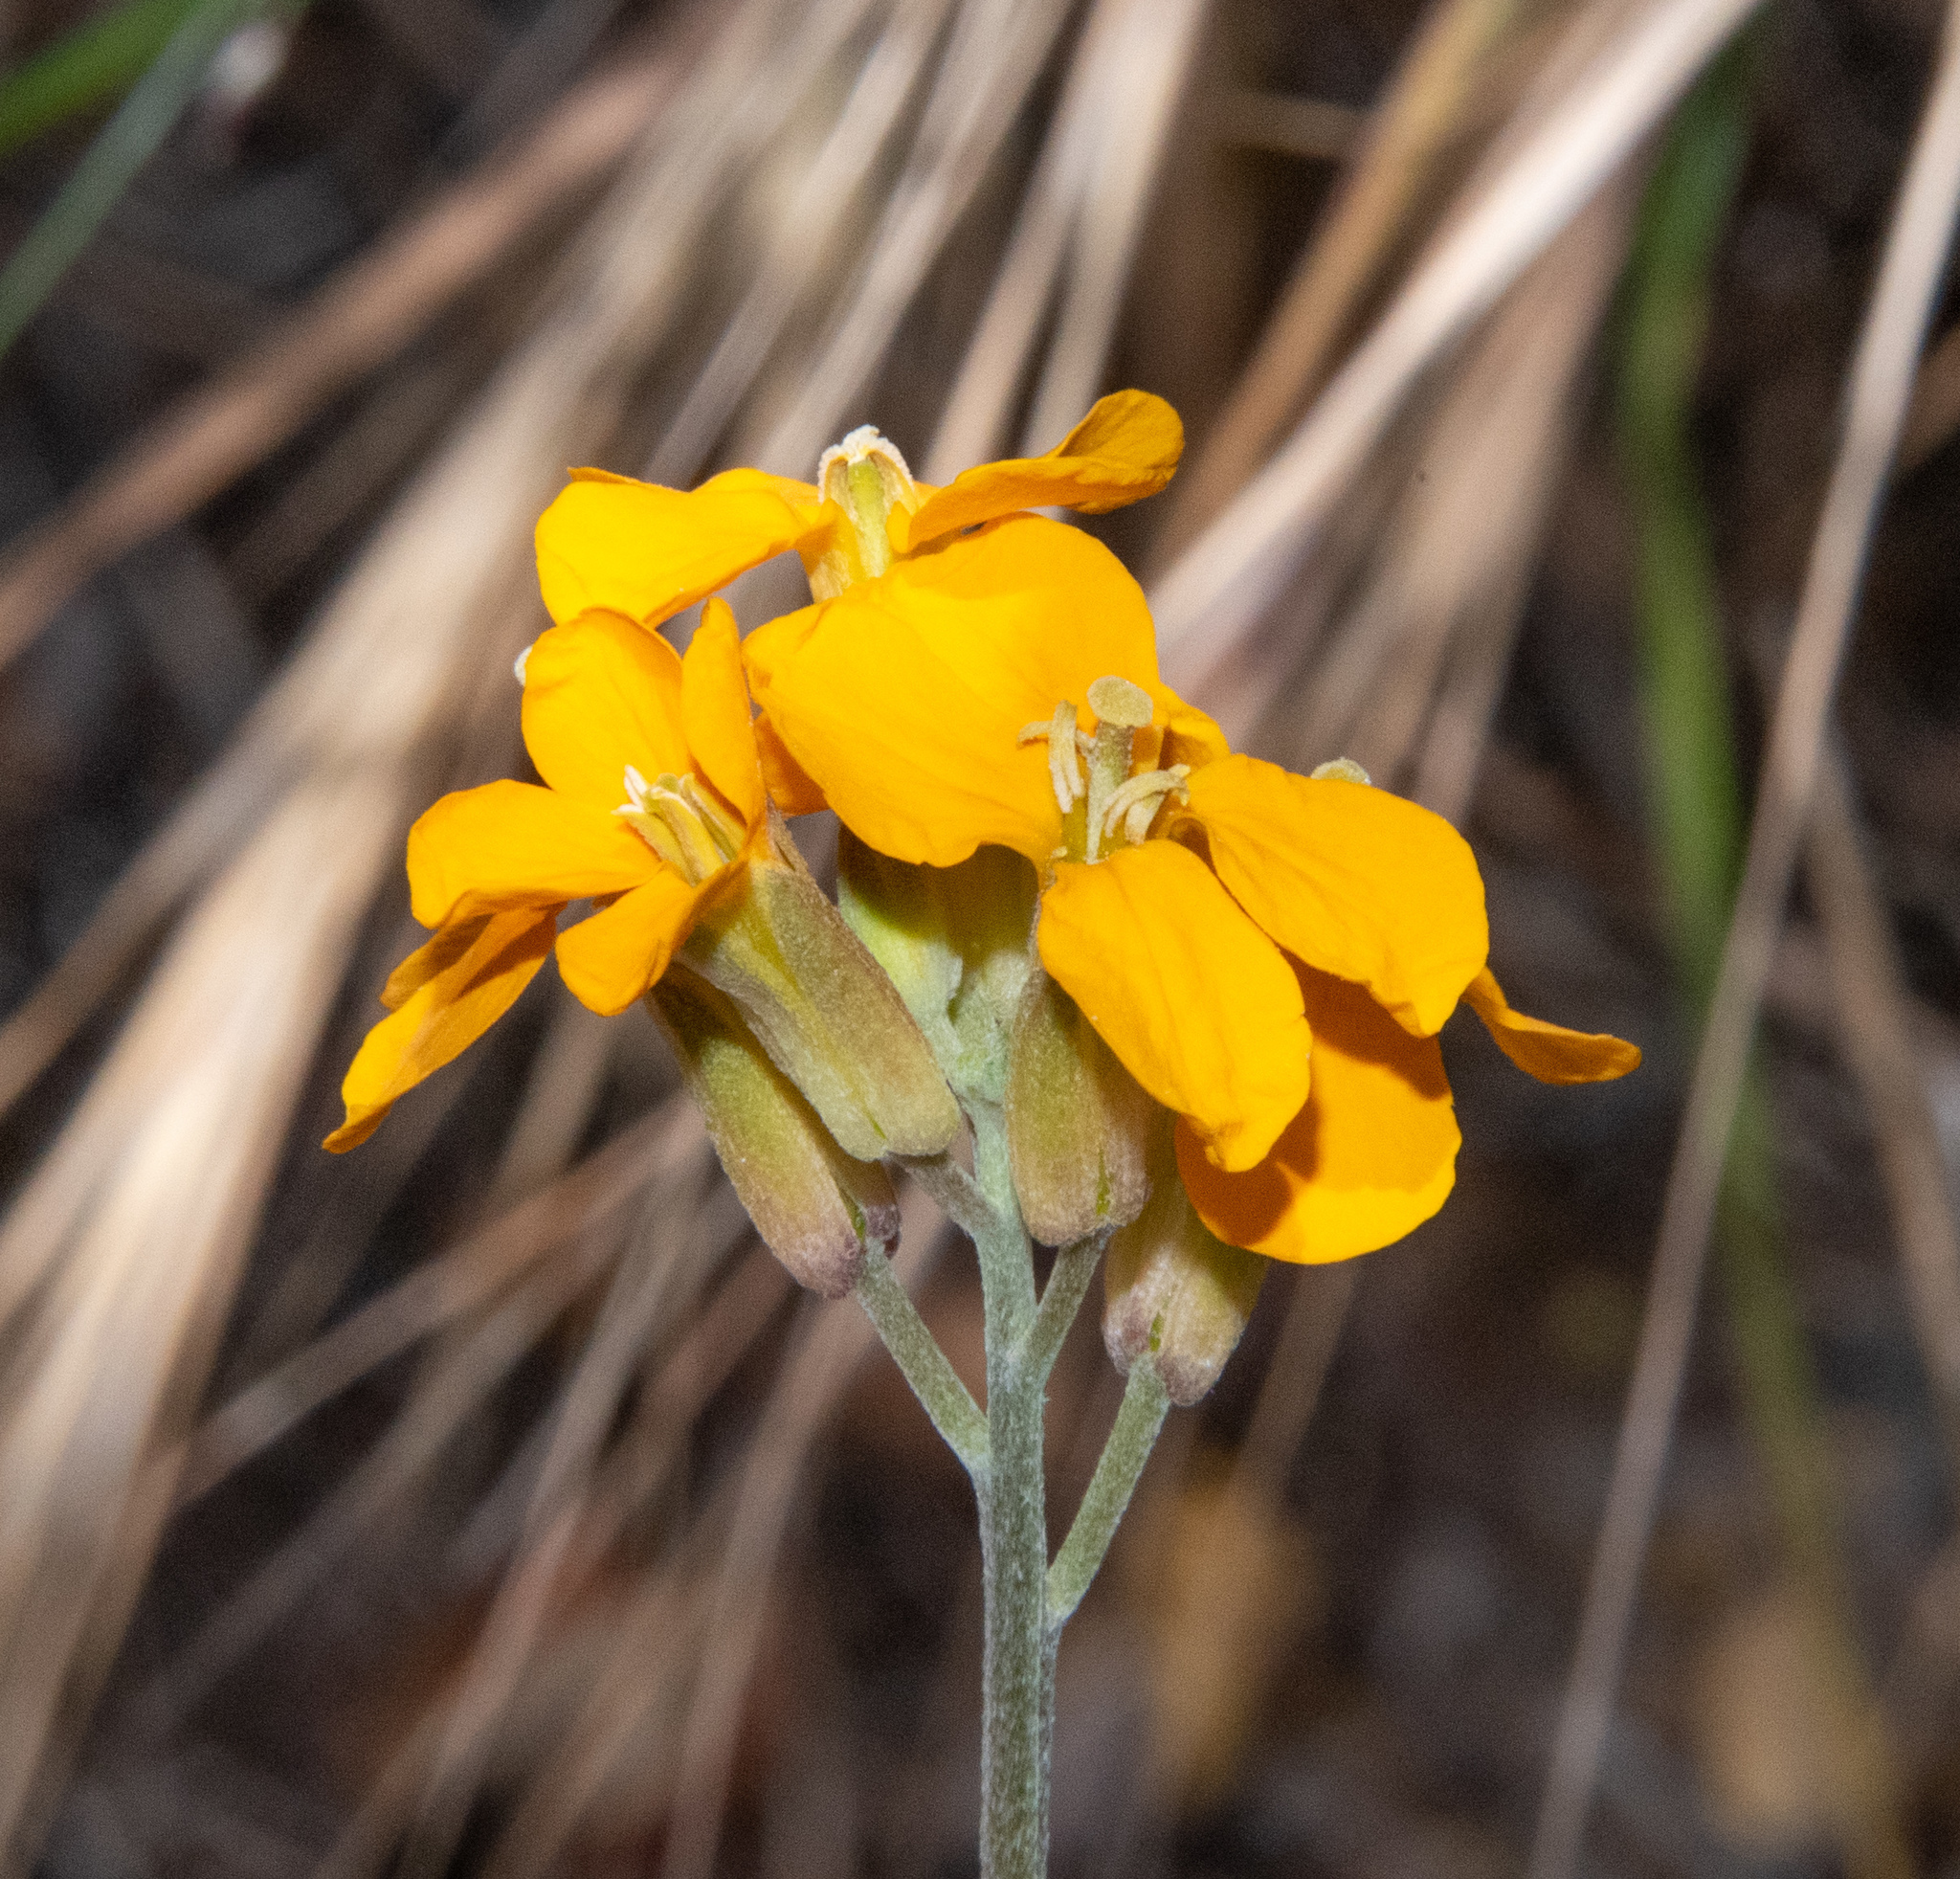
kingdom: Plantae
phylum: Tracheophyta
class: Magnoliopsida
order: Brassicales
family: Brassicaceae
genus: Erysimum
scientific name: Erysimum capitatum
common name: Western wallflower
